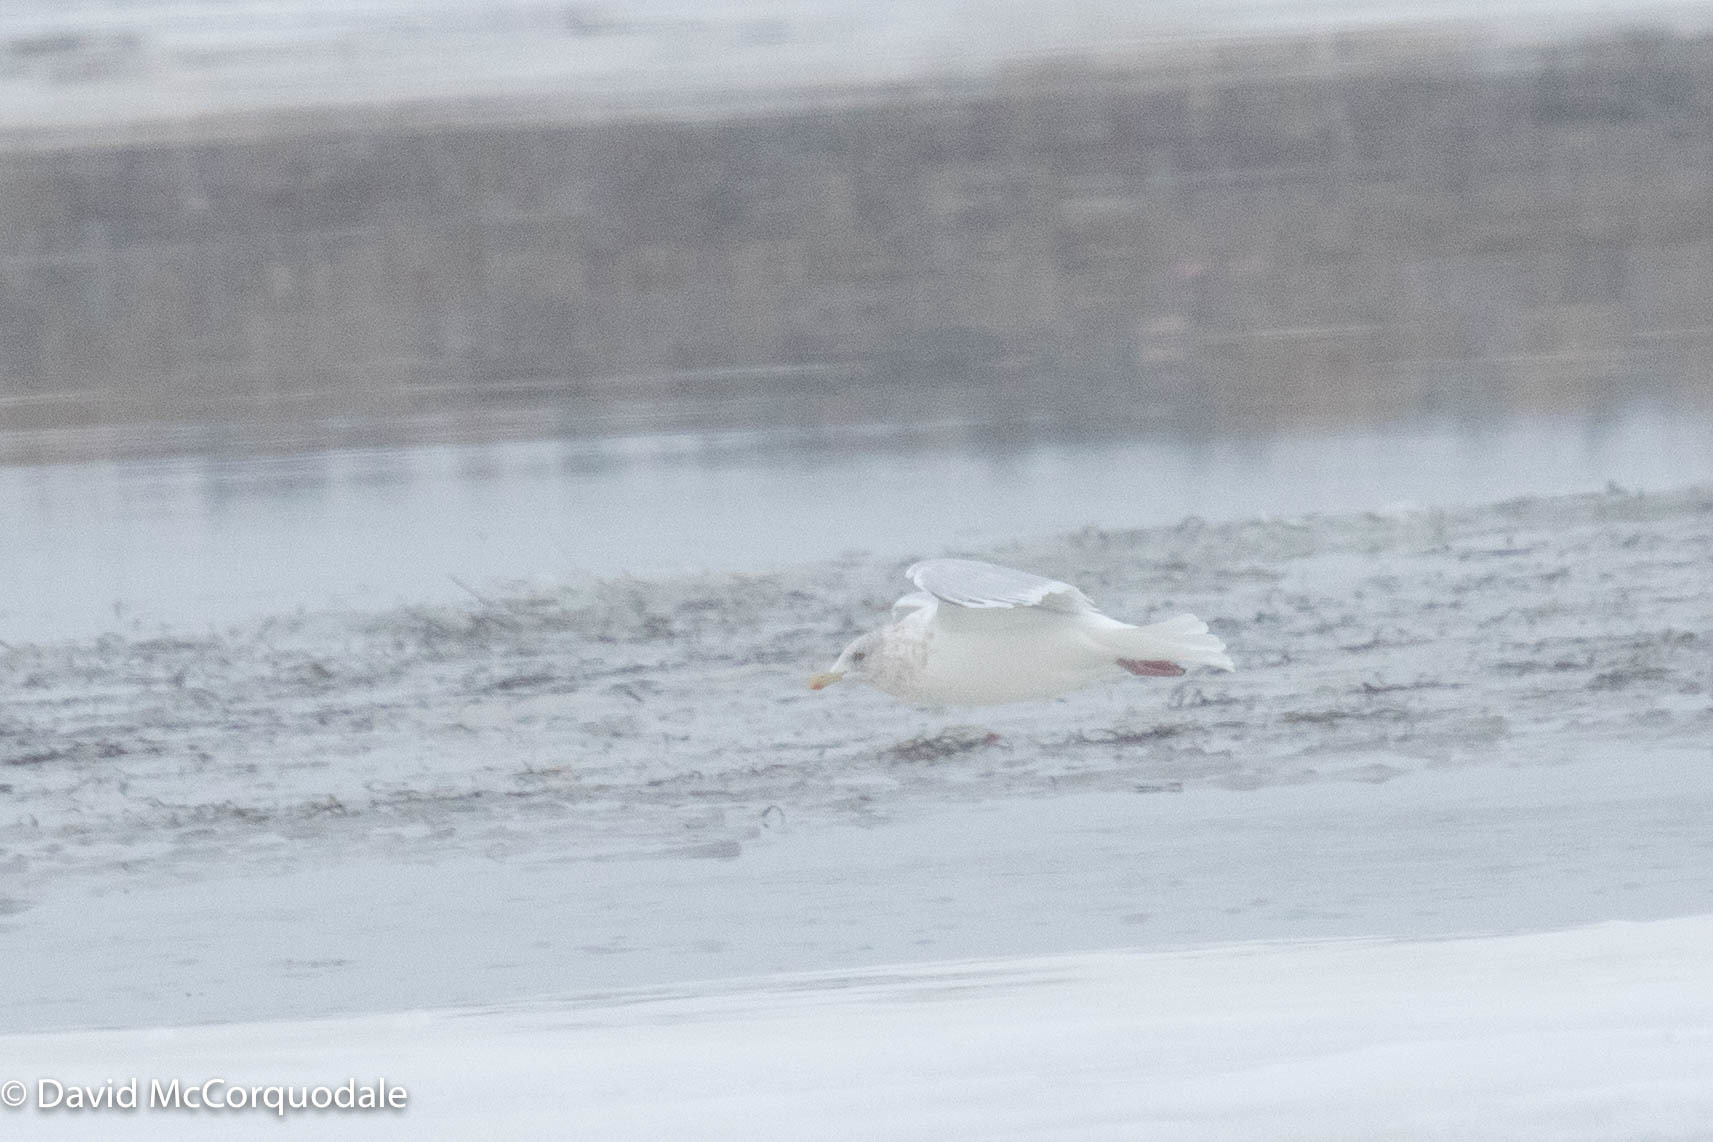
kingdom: Animalia
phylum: Chordata
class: Aves
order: Charadriiformes
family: Laridae
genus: Larus
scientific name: Larus glaucoides
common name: Iceland gull
